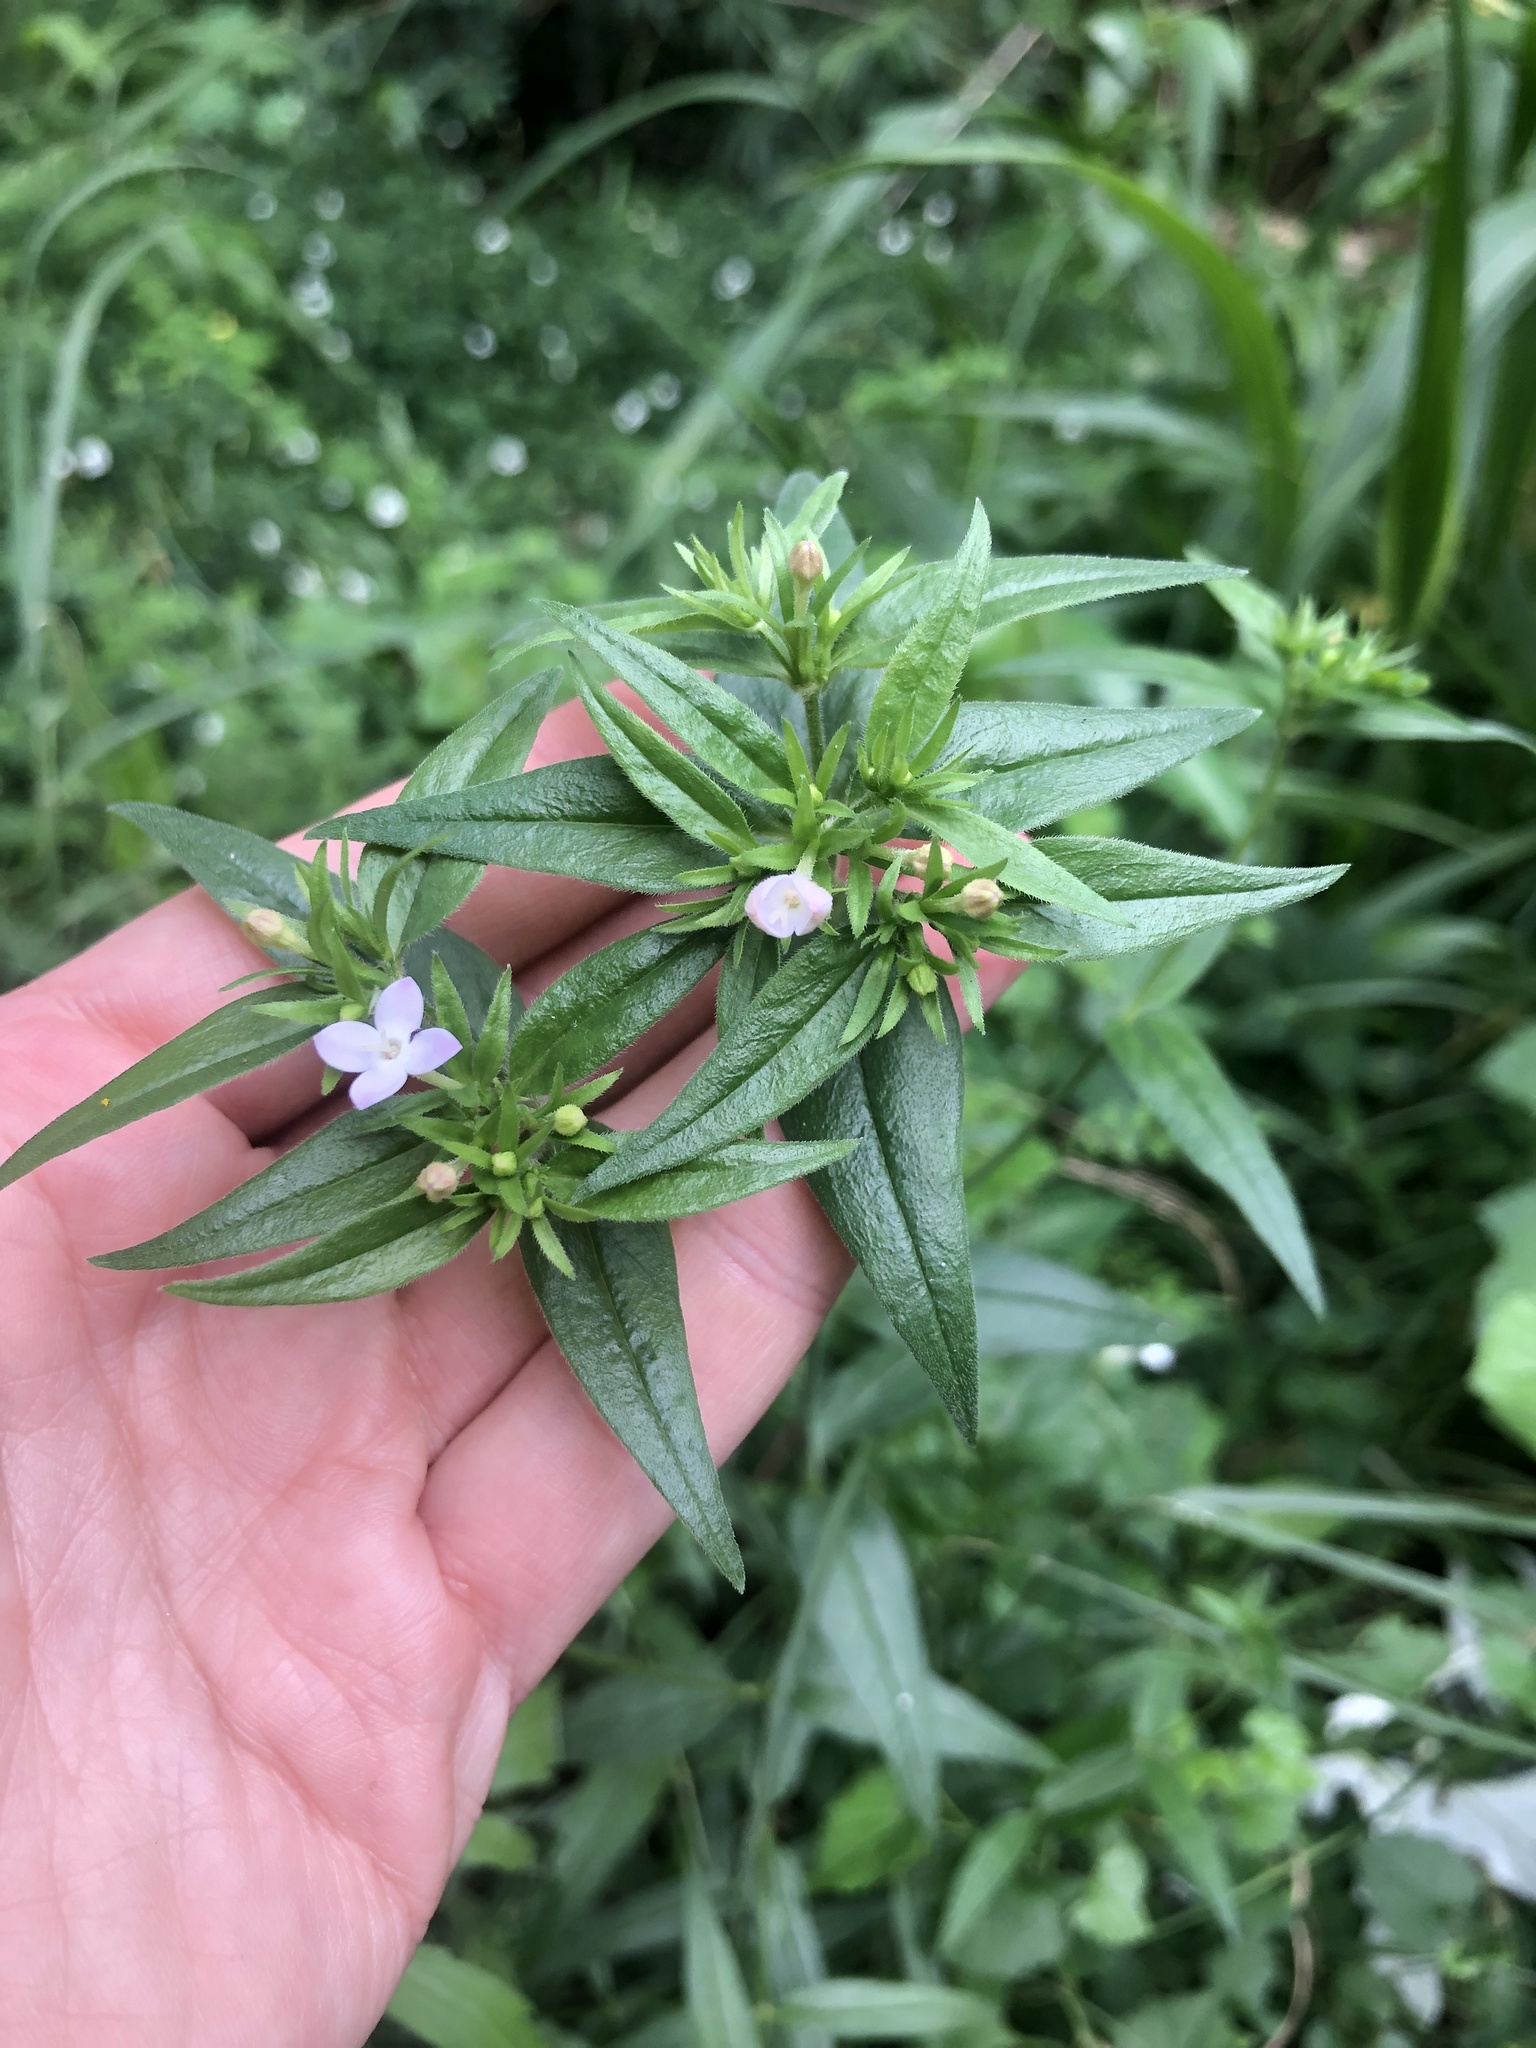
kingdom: Plantae
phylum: Tracheophyta
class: Magnoliopsida
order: Gentianales
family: Rubiaceae
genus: Conostomium
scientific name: Conostomium natalense
